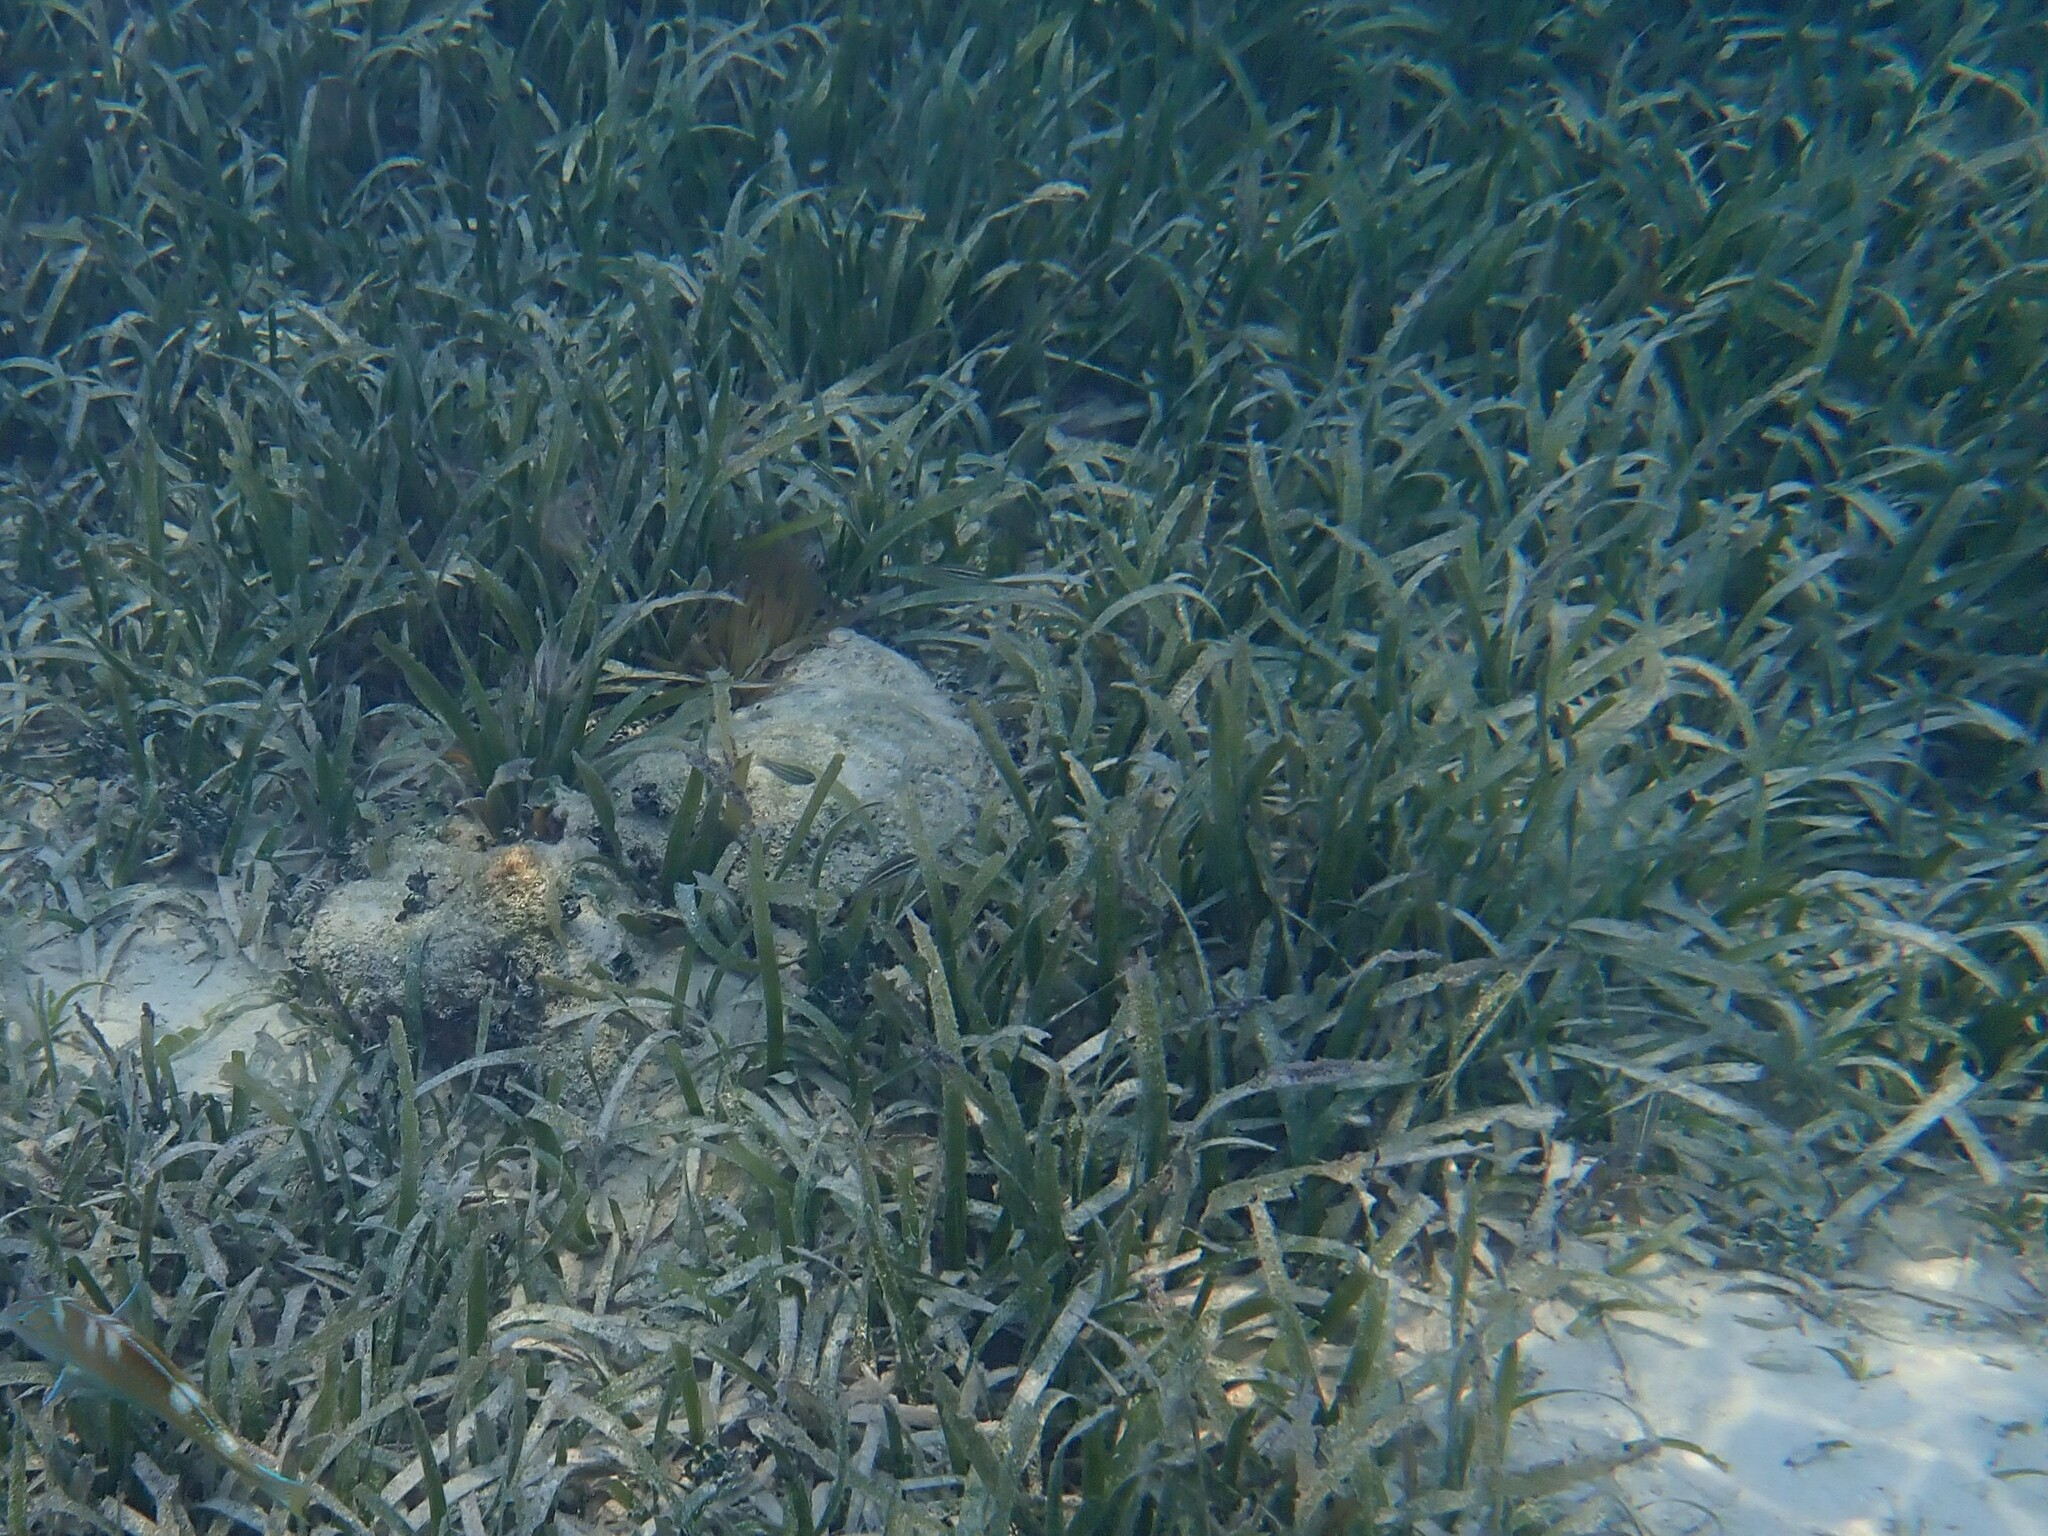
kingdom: Plantae
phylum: Tracheophyta
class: Liliopsida
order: Alismatales
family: Hydrocharitaceae
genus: Thalassia
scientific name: Thalassia testudinum
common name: Species code: tt
